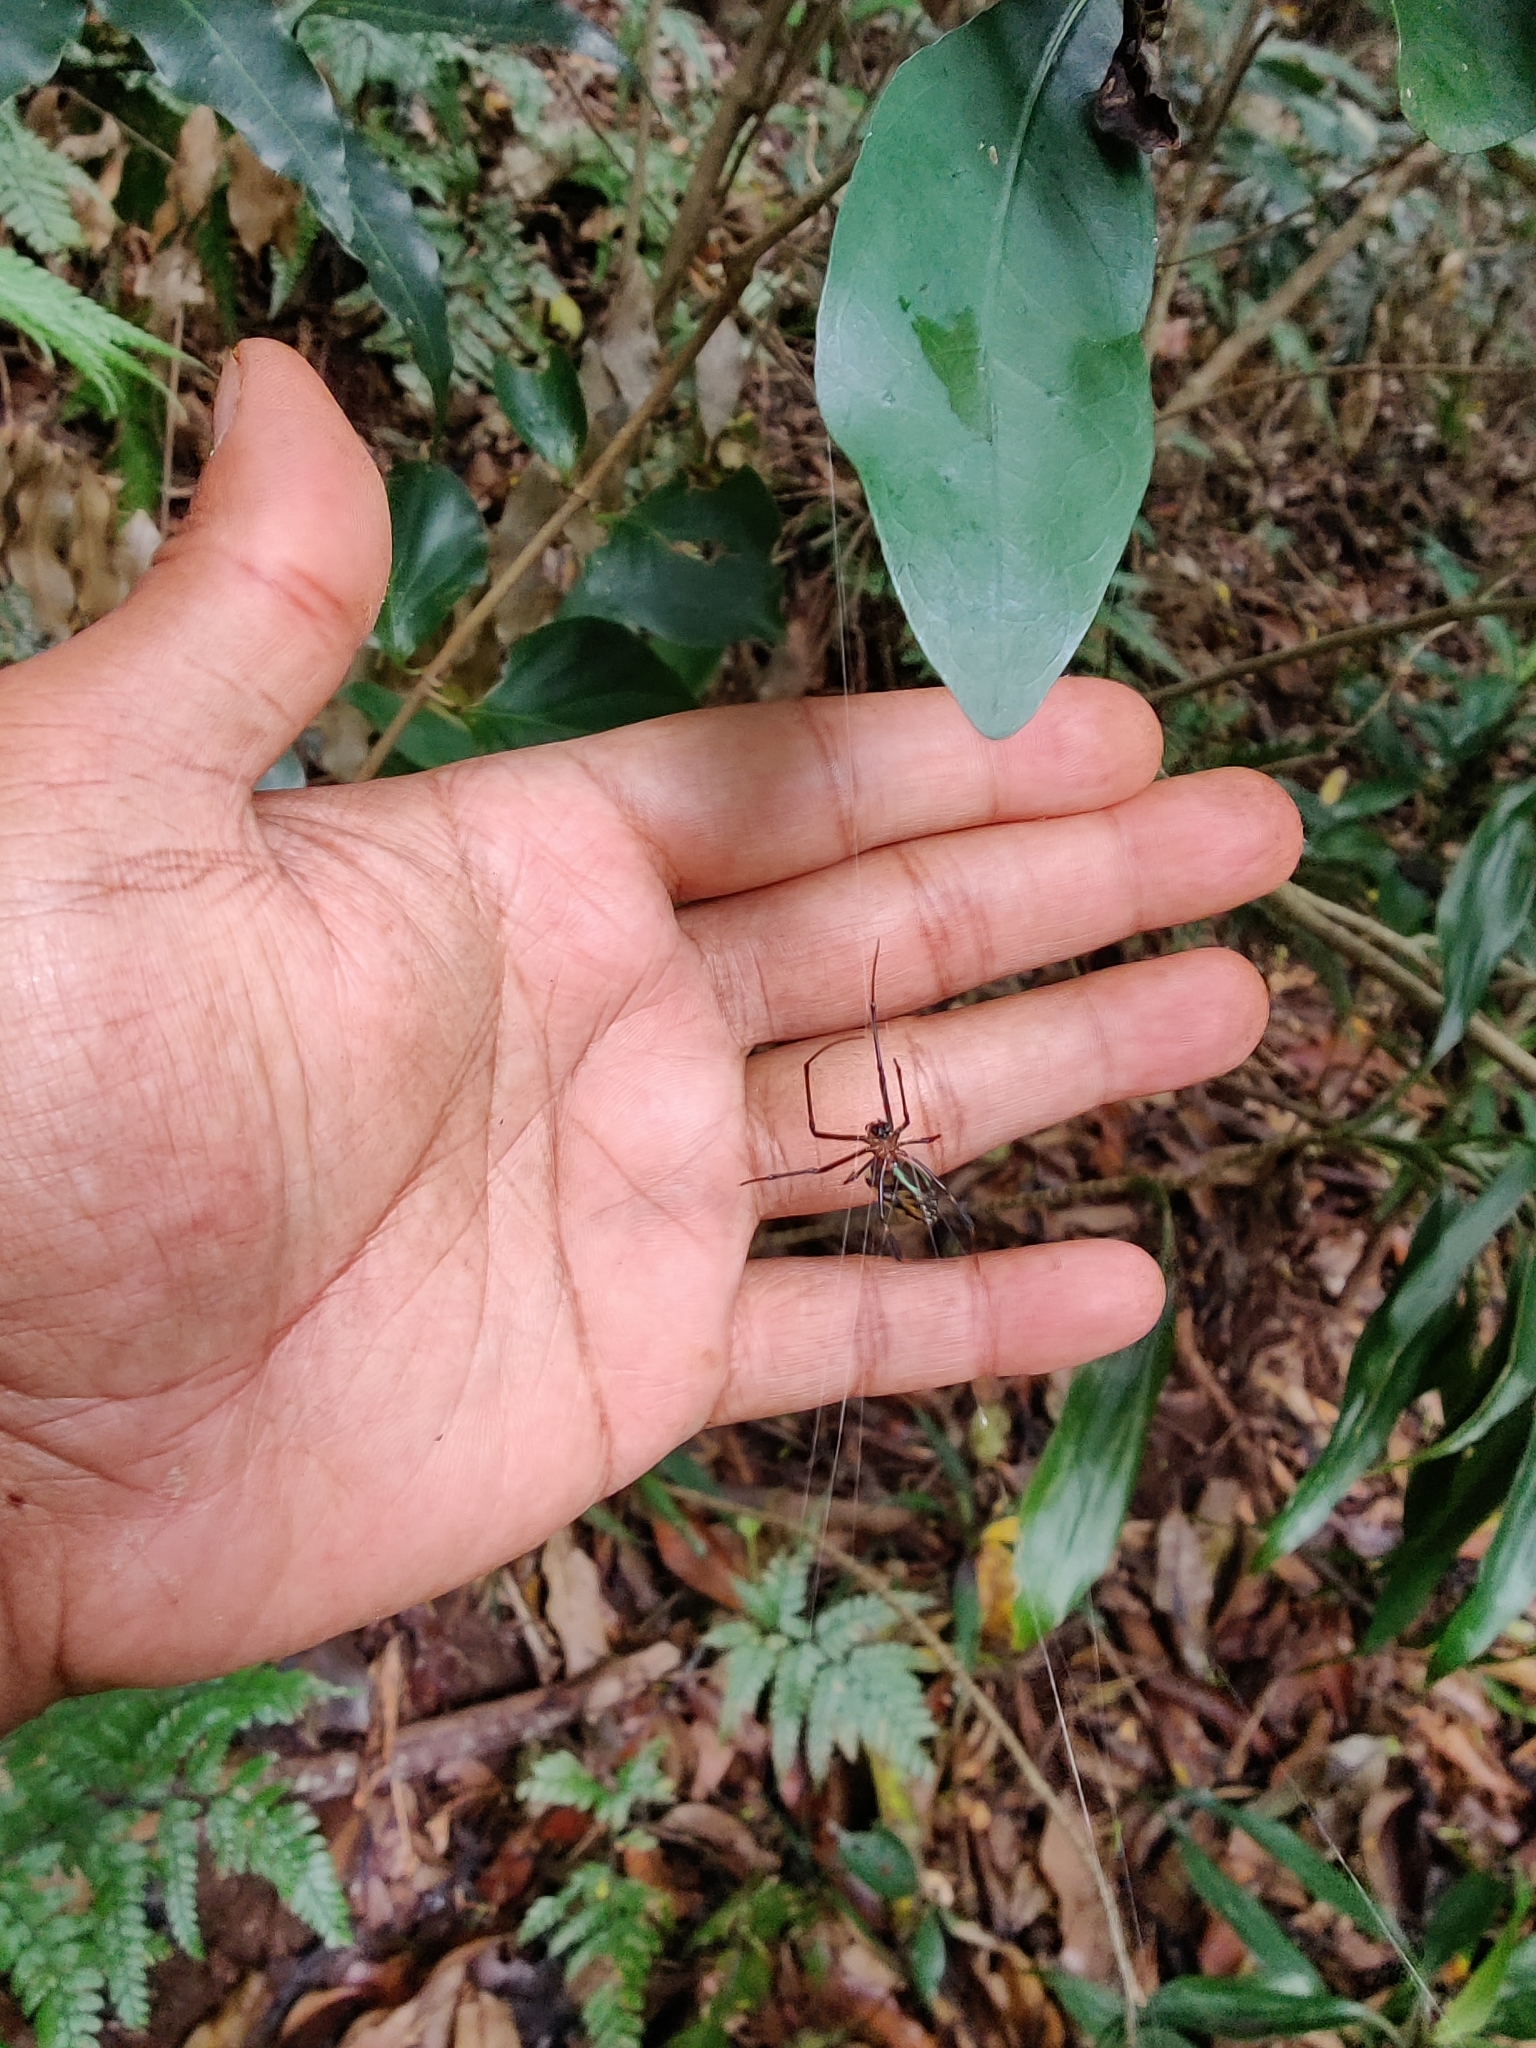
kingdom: Animalia
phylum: Arthropoda
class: Arachnida
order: Araneae
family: Tetragnathidae
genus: Leucauge
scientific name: Leucauge tessellata
